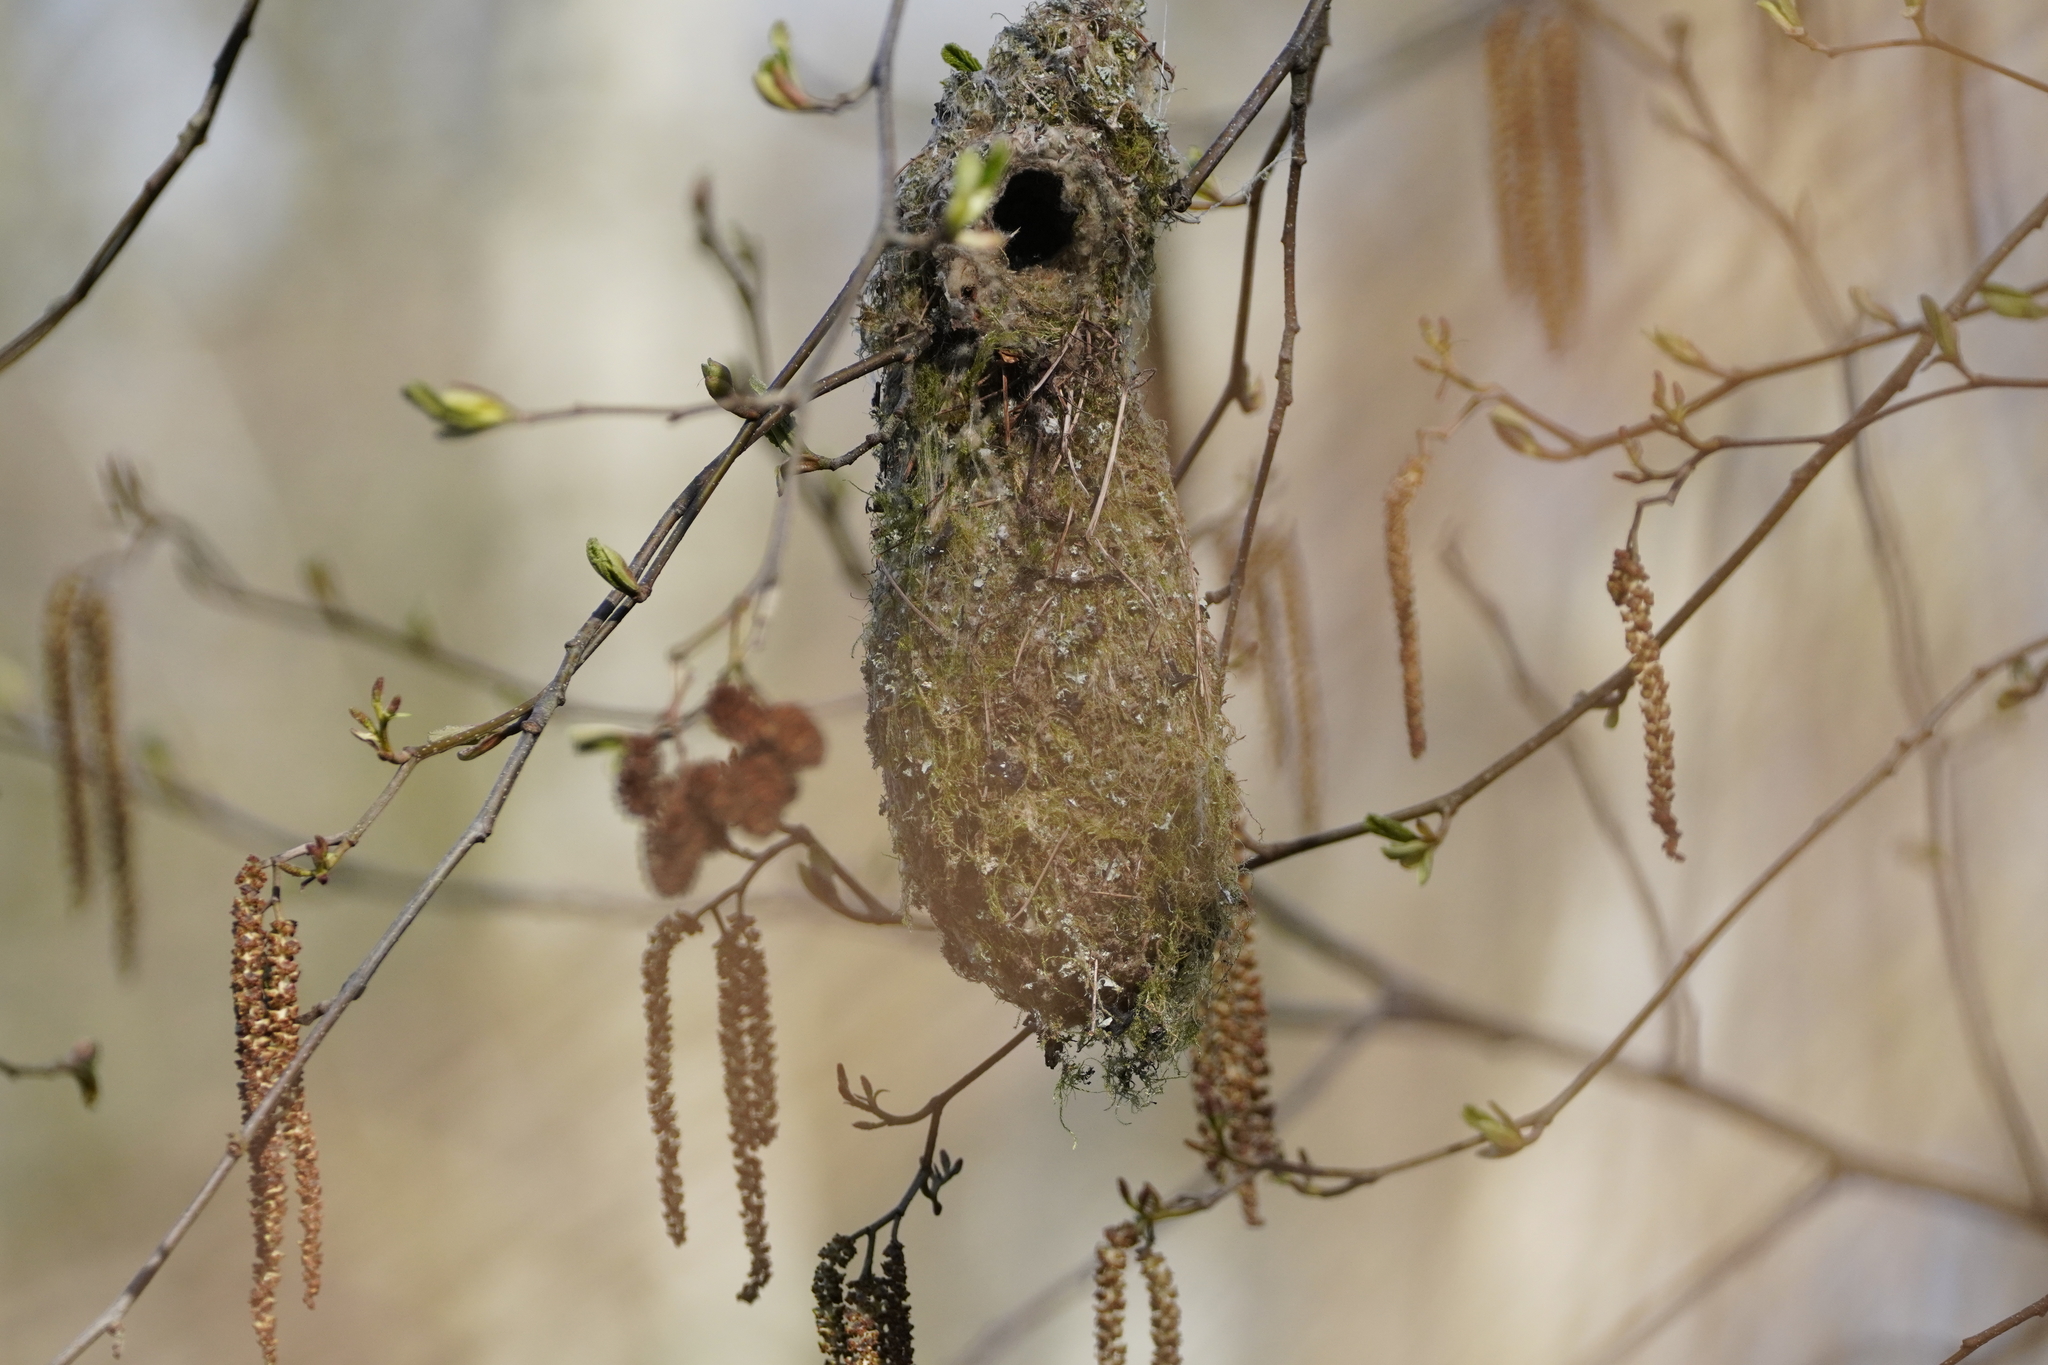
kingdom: Animalia
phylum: Chordata
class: Aves
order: Passeriformes
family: Aegithalidae
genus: Psaltriparus
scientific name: Psaltriparus minimus
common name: American bushtit
